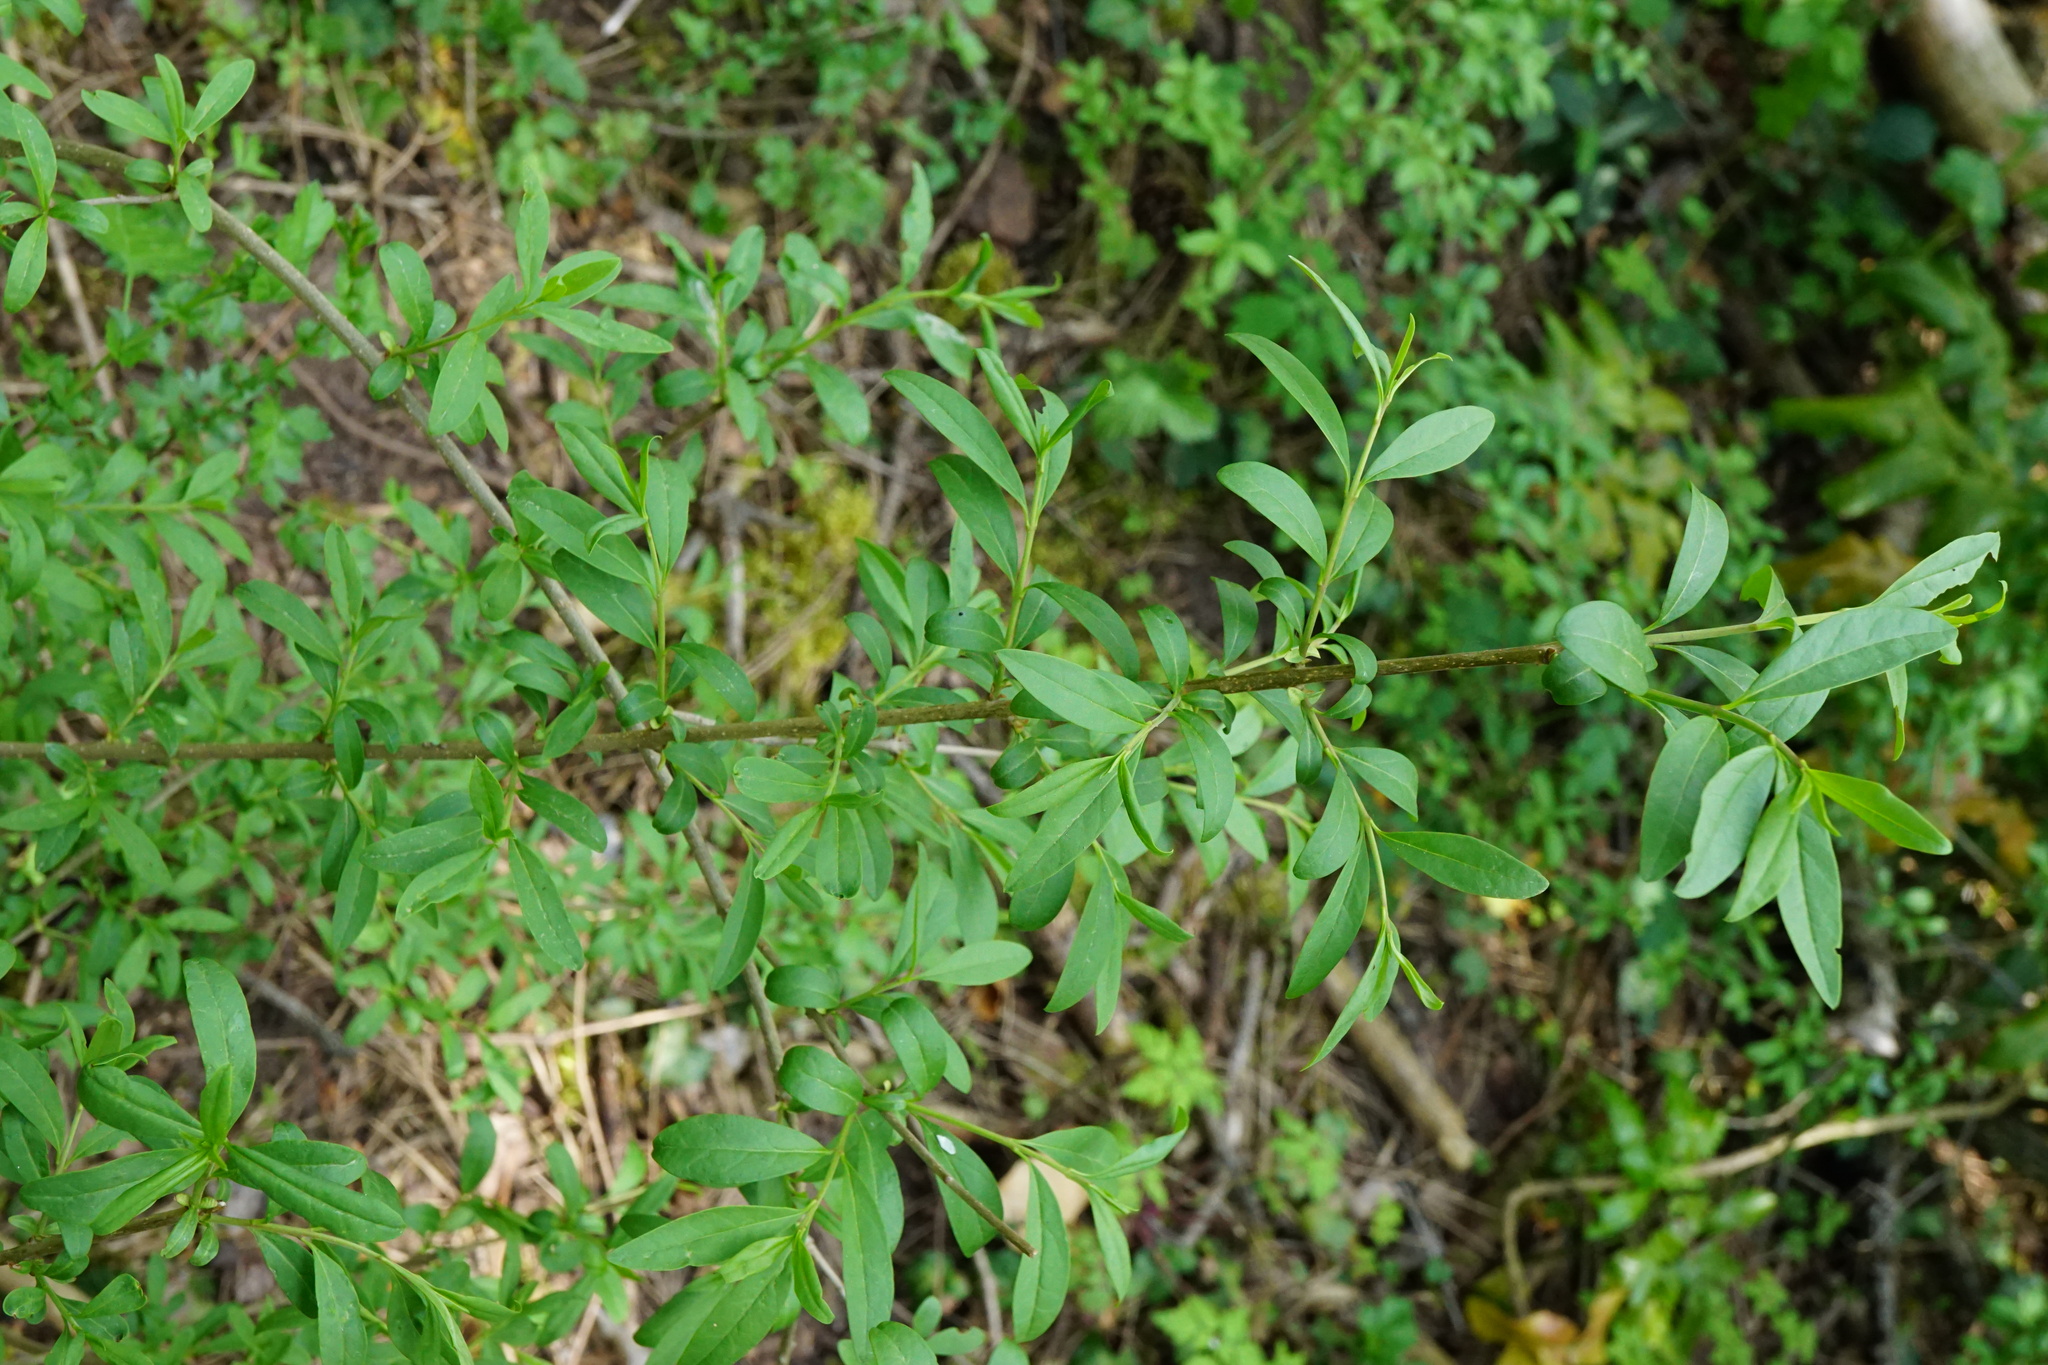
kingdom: Plantae
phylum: Tracheophyta
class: Magnoliopsida
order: Lamiales
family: Oleaceae
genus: Ligustrum
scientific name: Ligustrum vulgare
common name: Wild privet
